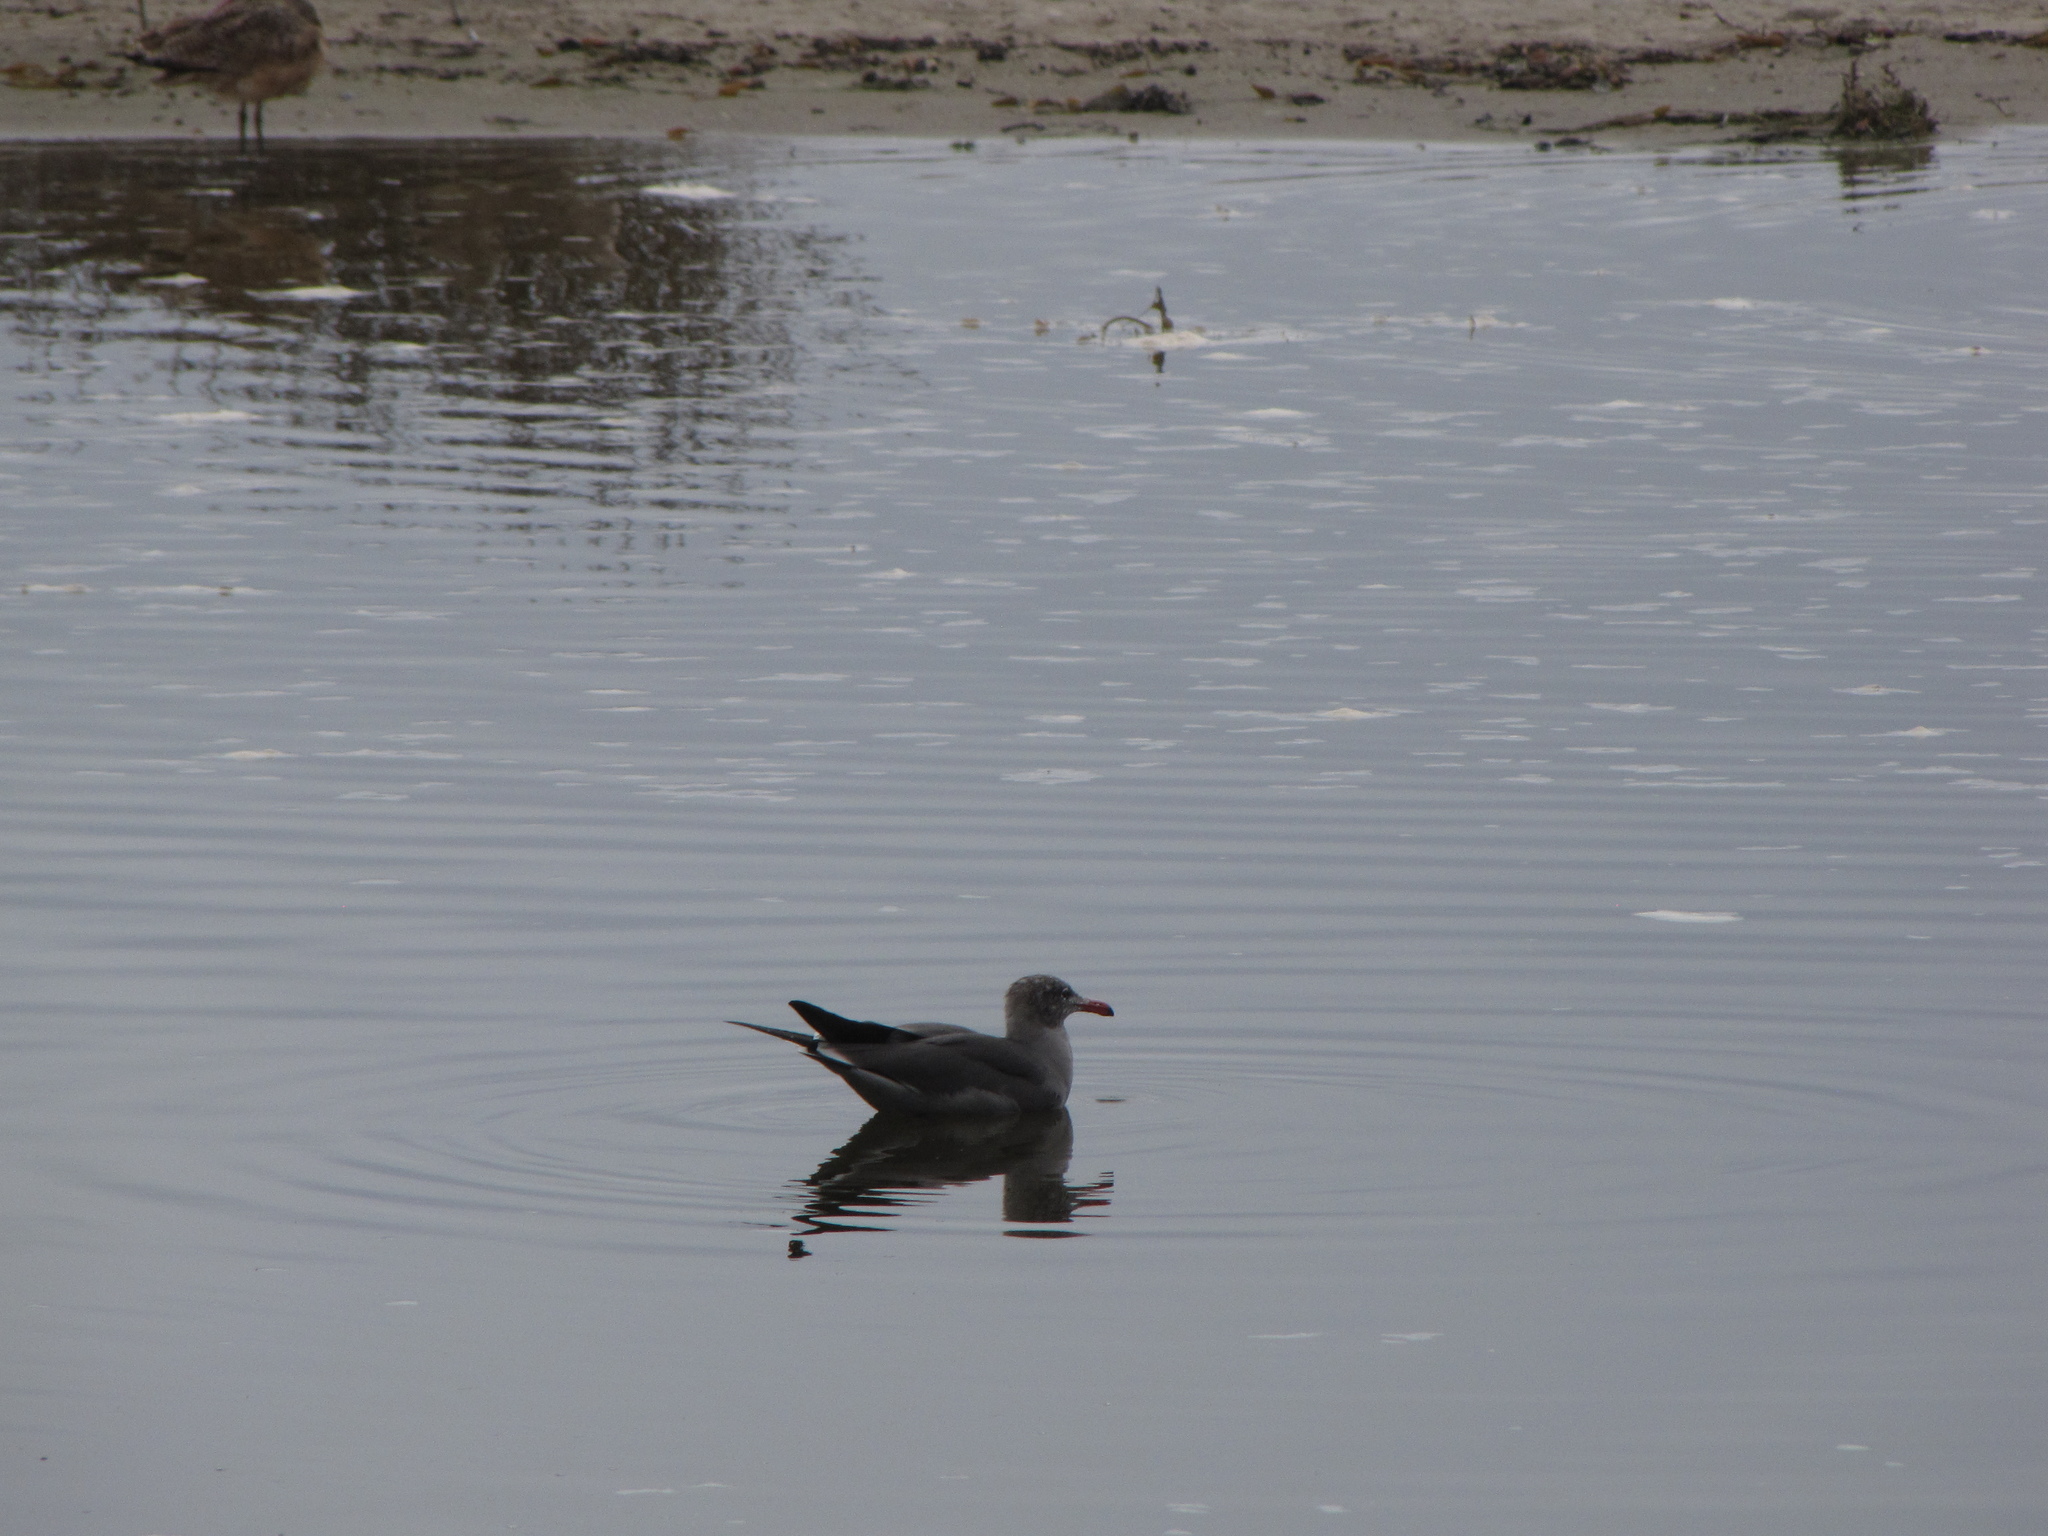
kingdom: Animalia
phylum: Chordata
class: Aves
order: Charadriiformes
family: Laridae
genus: Larus
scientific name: Larus heermanni
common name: Heermann's gull
